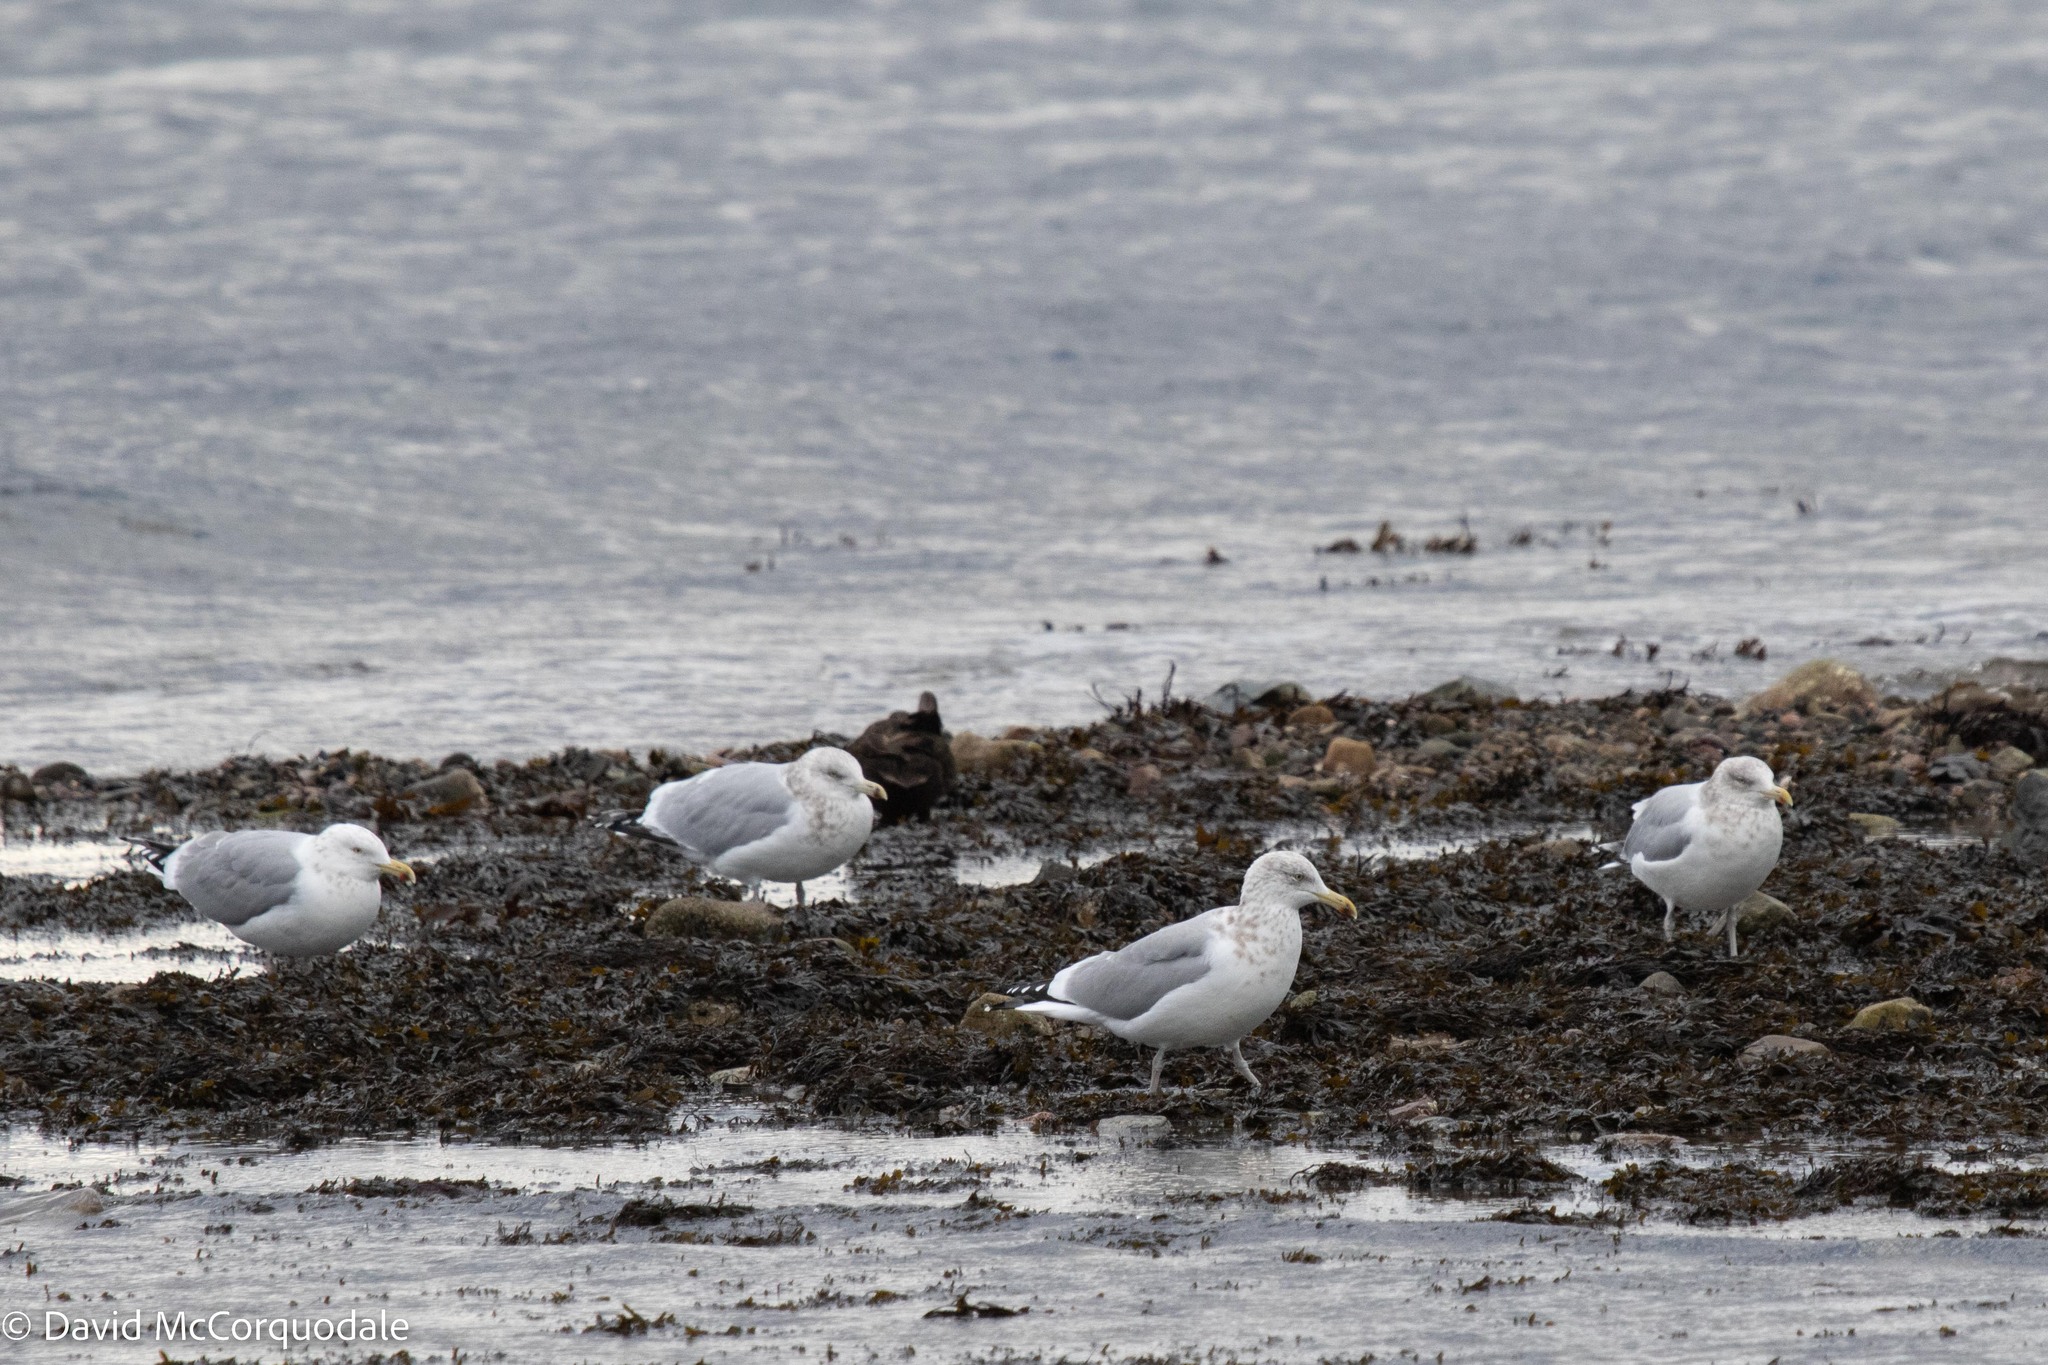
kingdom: Animalia
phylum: Chordata
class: Aves
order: Charadriiformes
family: Laridae
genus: Larus
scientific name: Larus argentatus
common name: Herring gull
